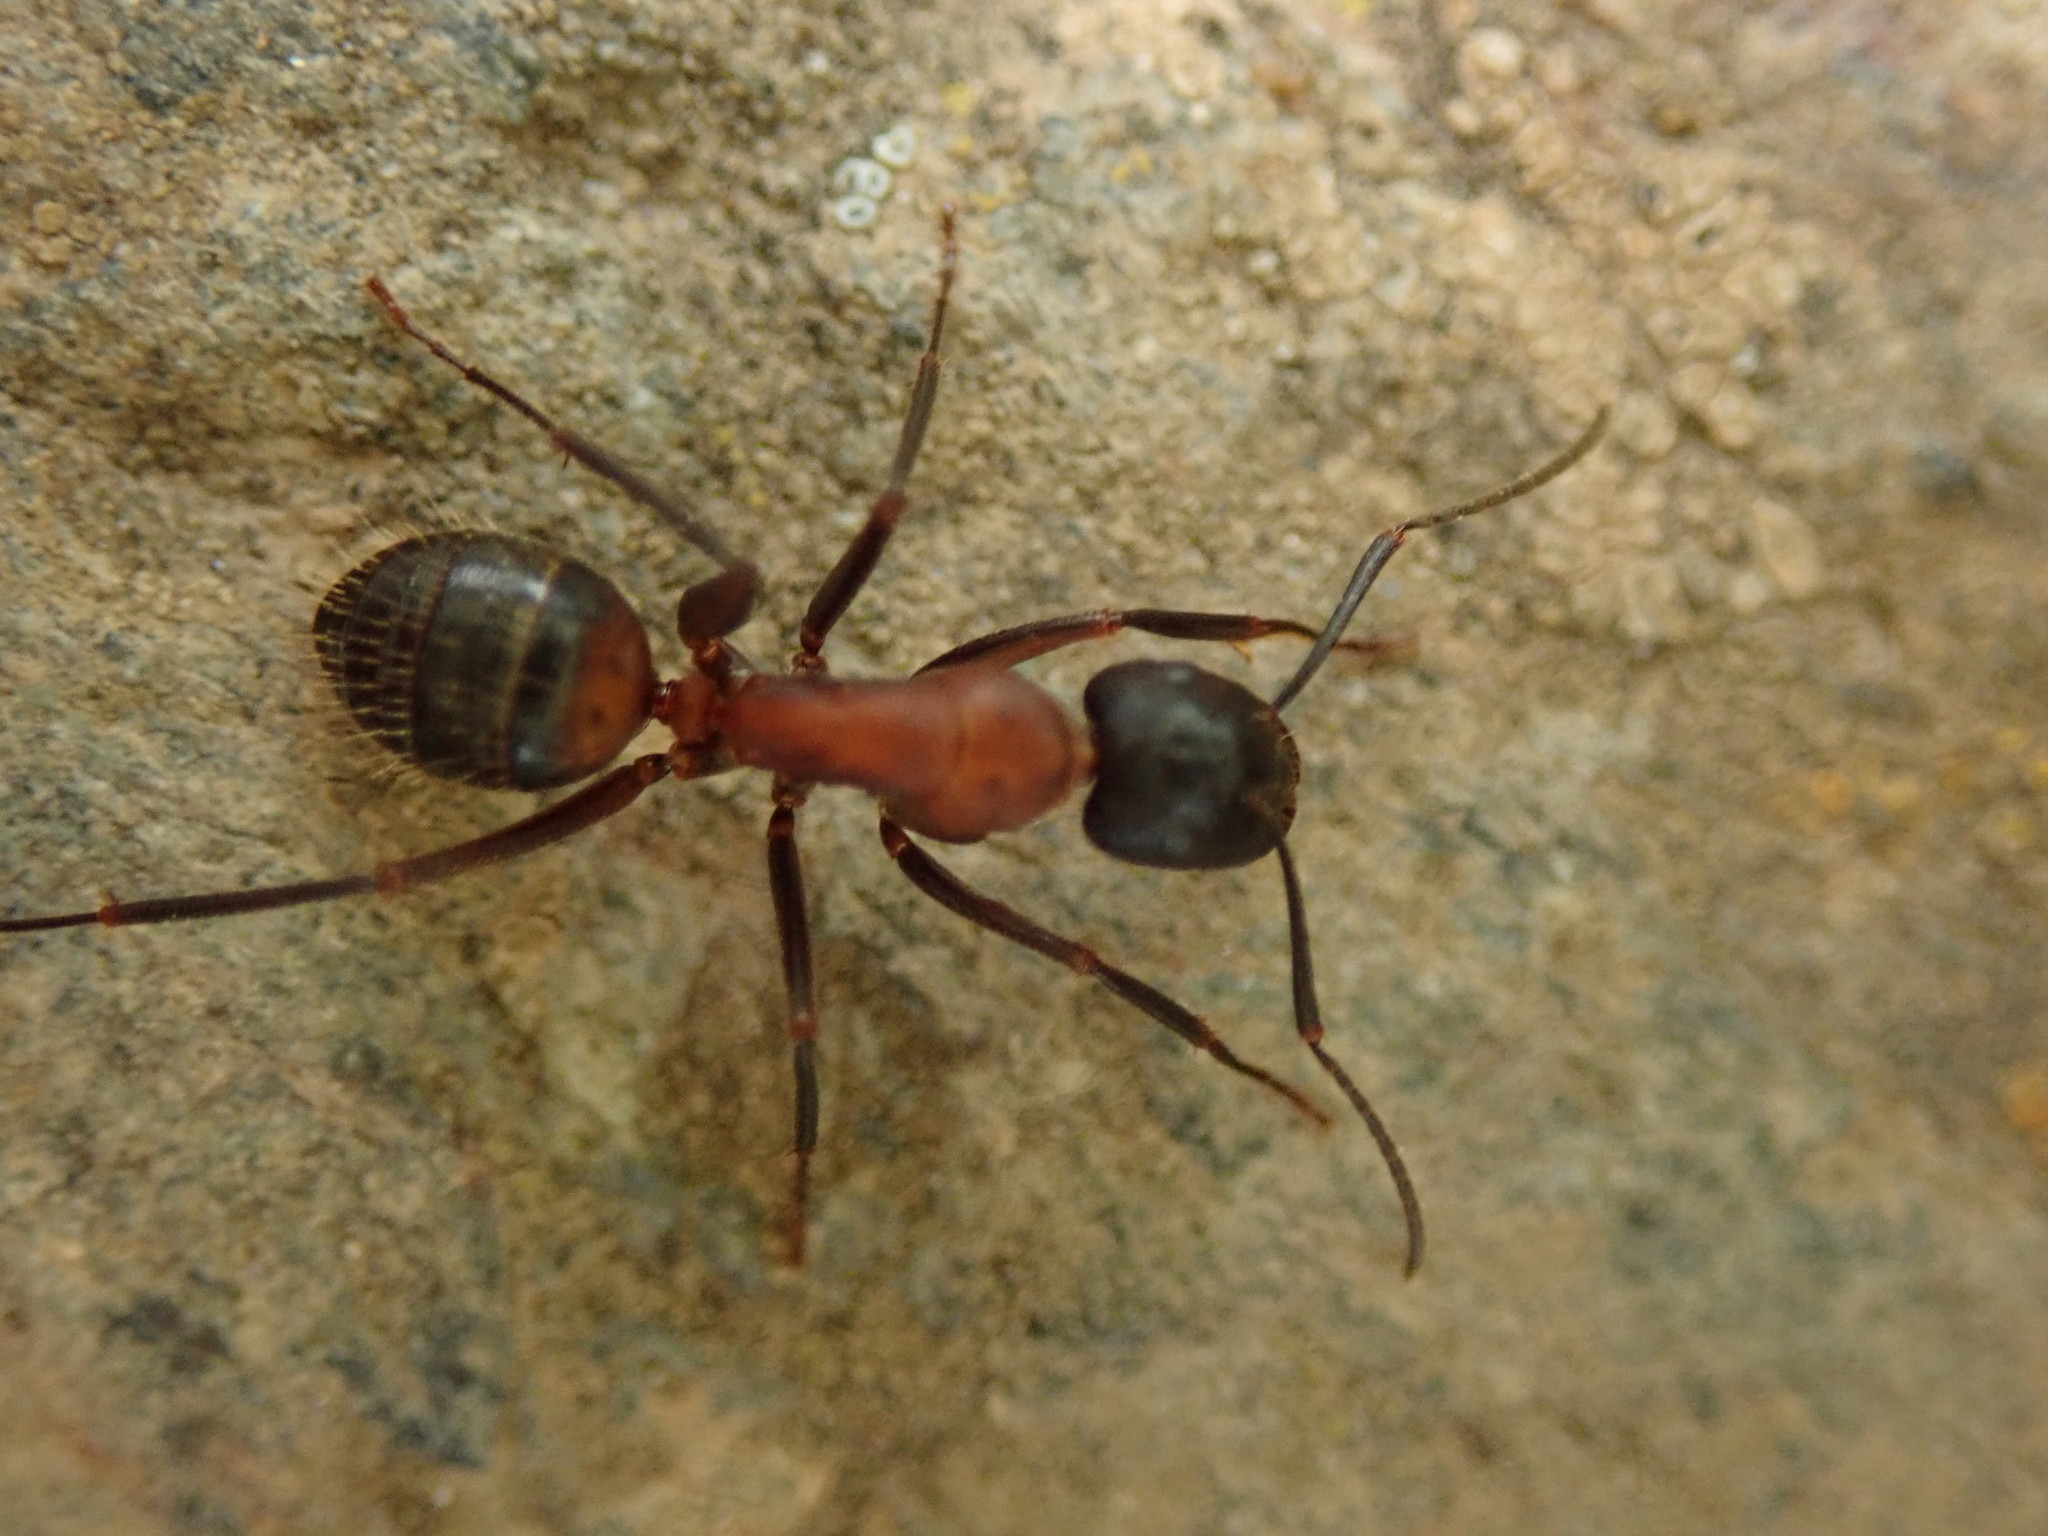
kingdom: Animalia
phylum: Arthropoda
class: Insecta
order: Hymenoptera
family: Formicidae
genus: Camponotus
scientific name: Camponotus ligniperdus
